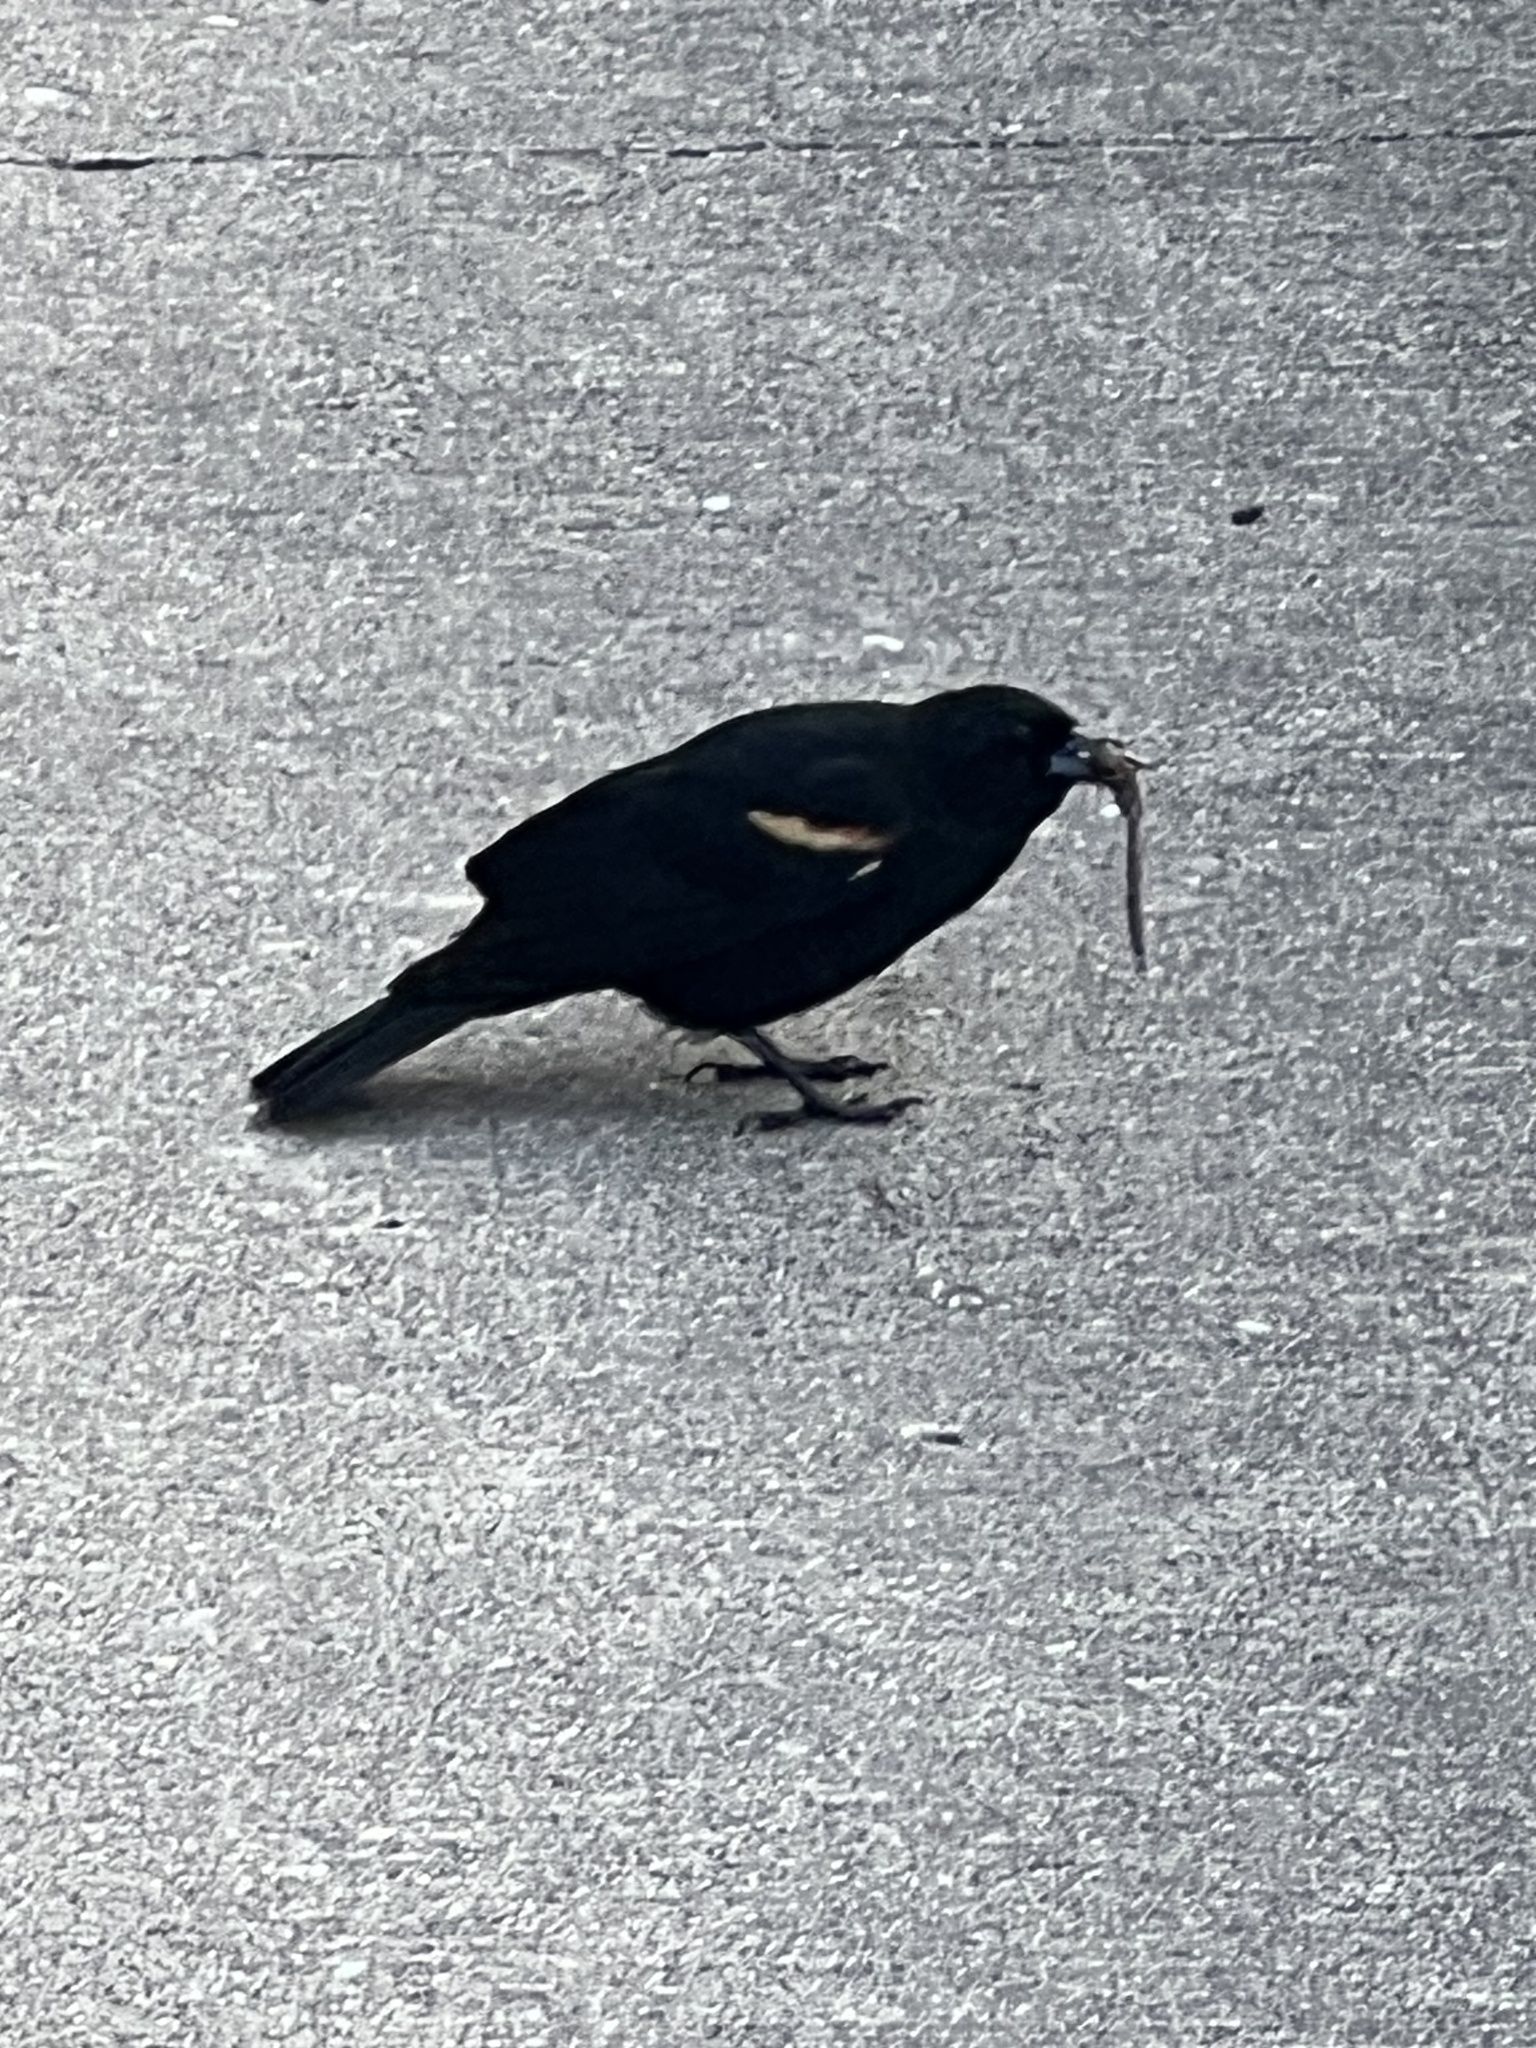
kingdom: Animalia
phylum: Chordata
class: Aves
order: Passeriformes
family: Icteridae
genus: Agelaius
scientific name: Agelaius phoeniceus
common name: Red-winged blackbird
